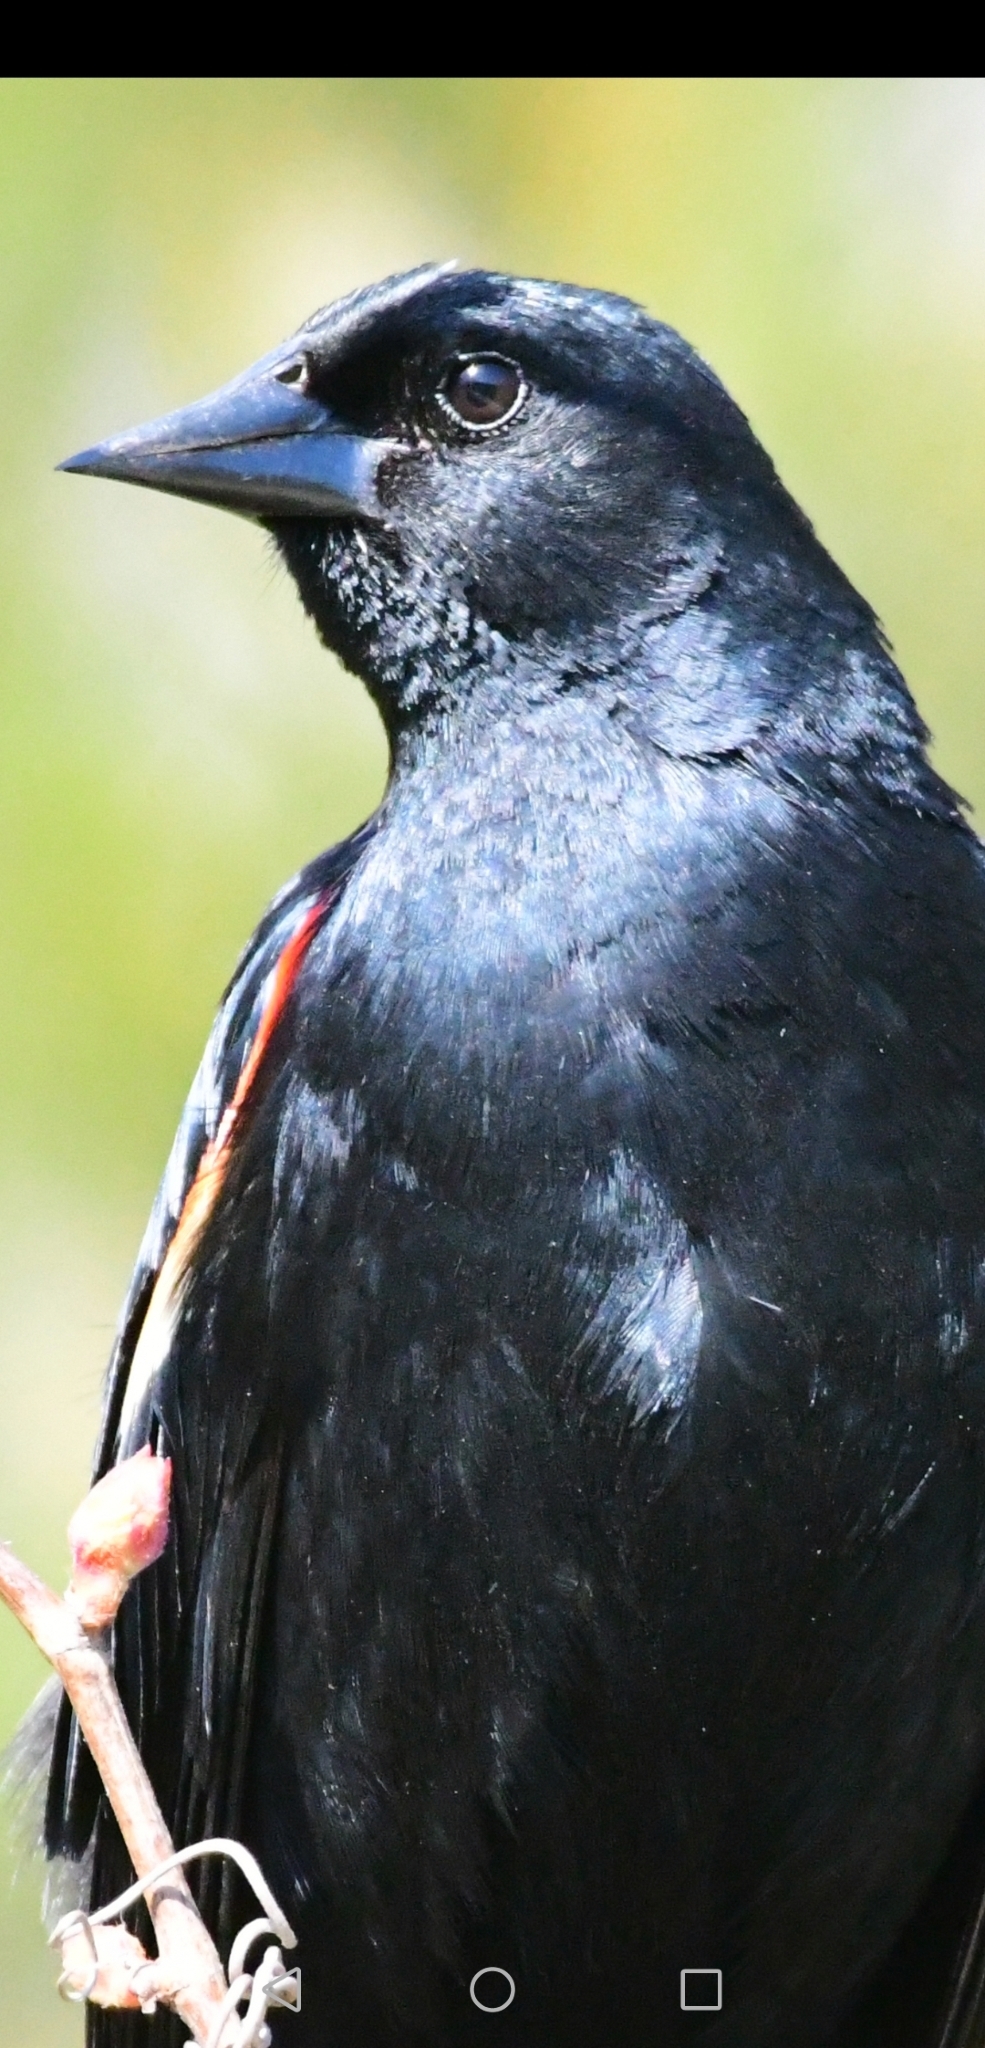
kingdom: Animalia
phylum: Chordata
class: Aves
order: Passeriformes
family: Icteridae
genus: Agelaius
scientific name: Agelaius phoeniceus
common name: Red-winged blackbird
